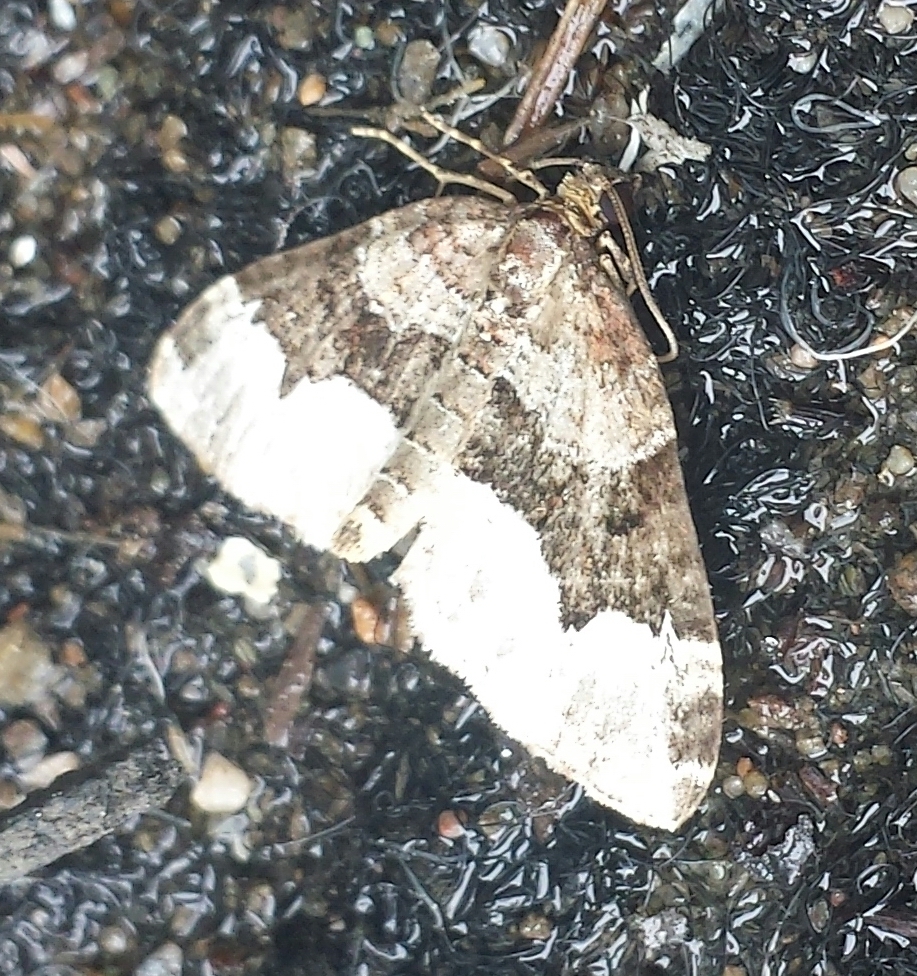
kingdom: Animalia
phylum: Arthropoda
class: Insecta
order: Lepidoptera
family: Geometridae
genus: Euphyia
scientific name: Euphyia intermediata
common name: Sharp-angled carpet
